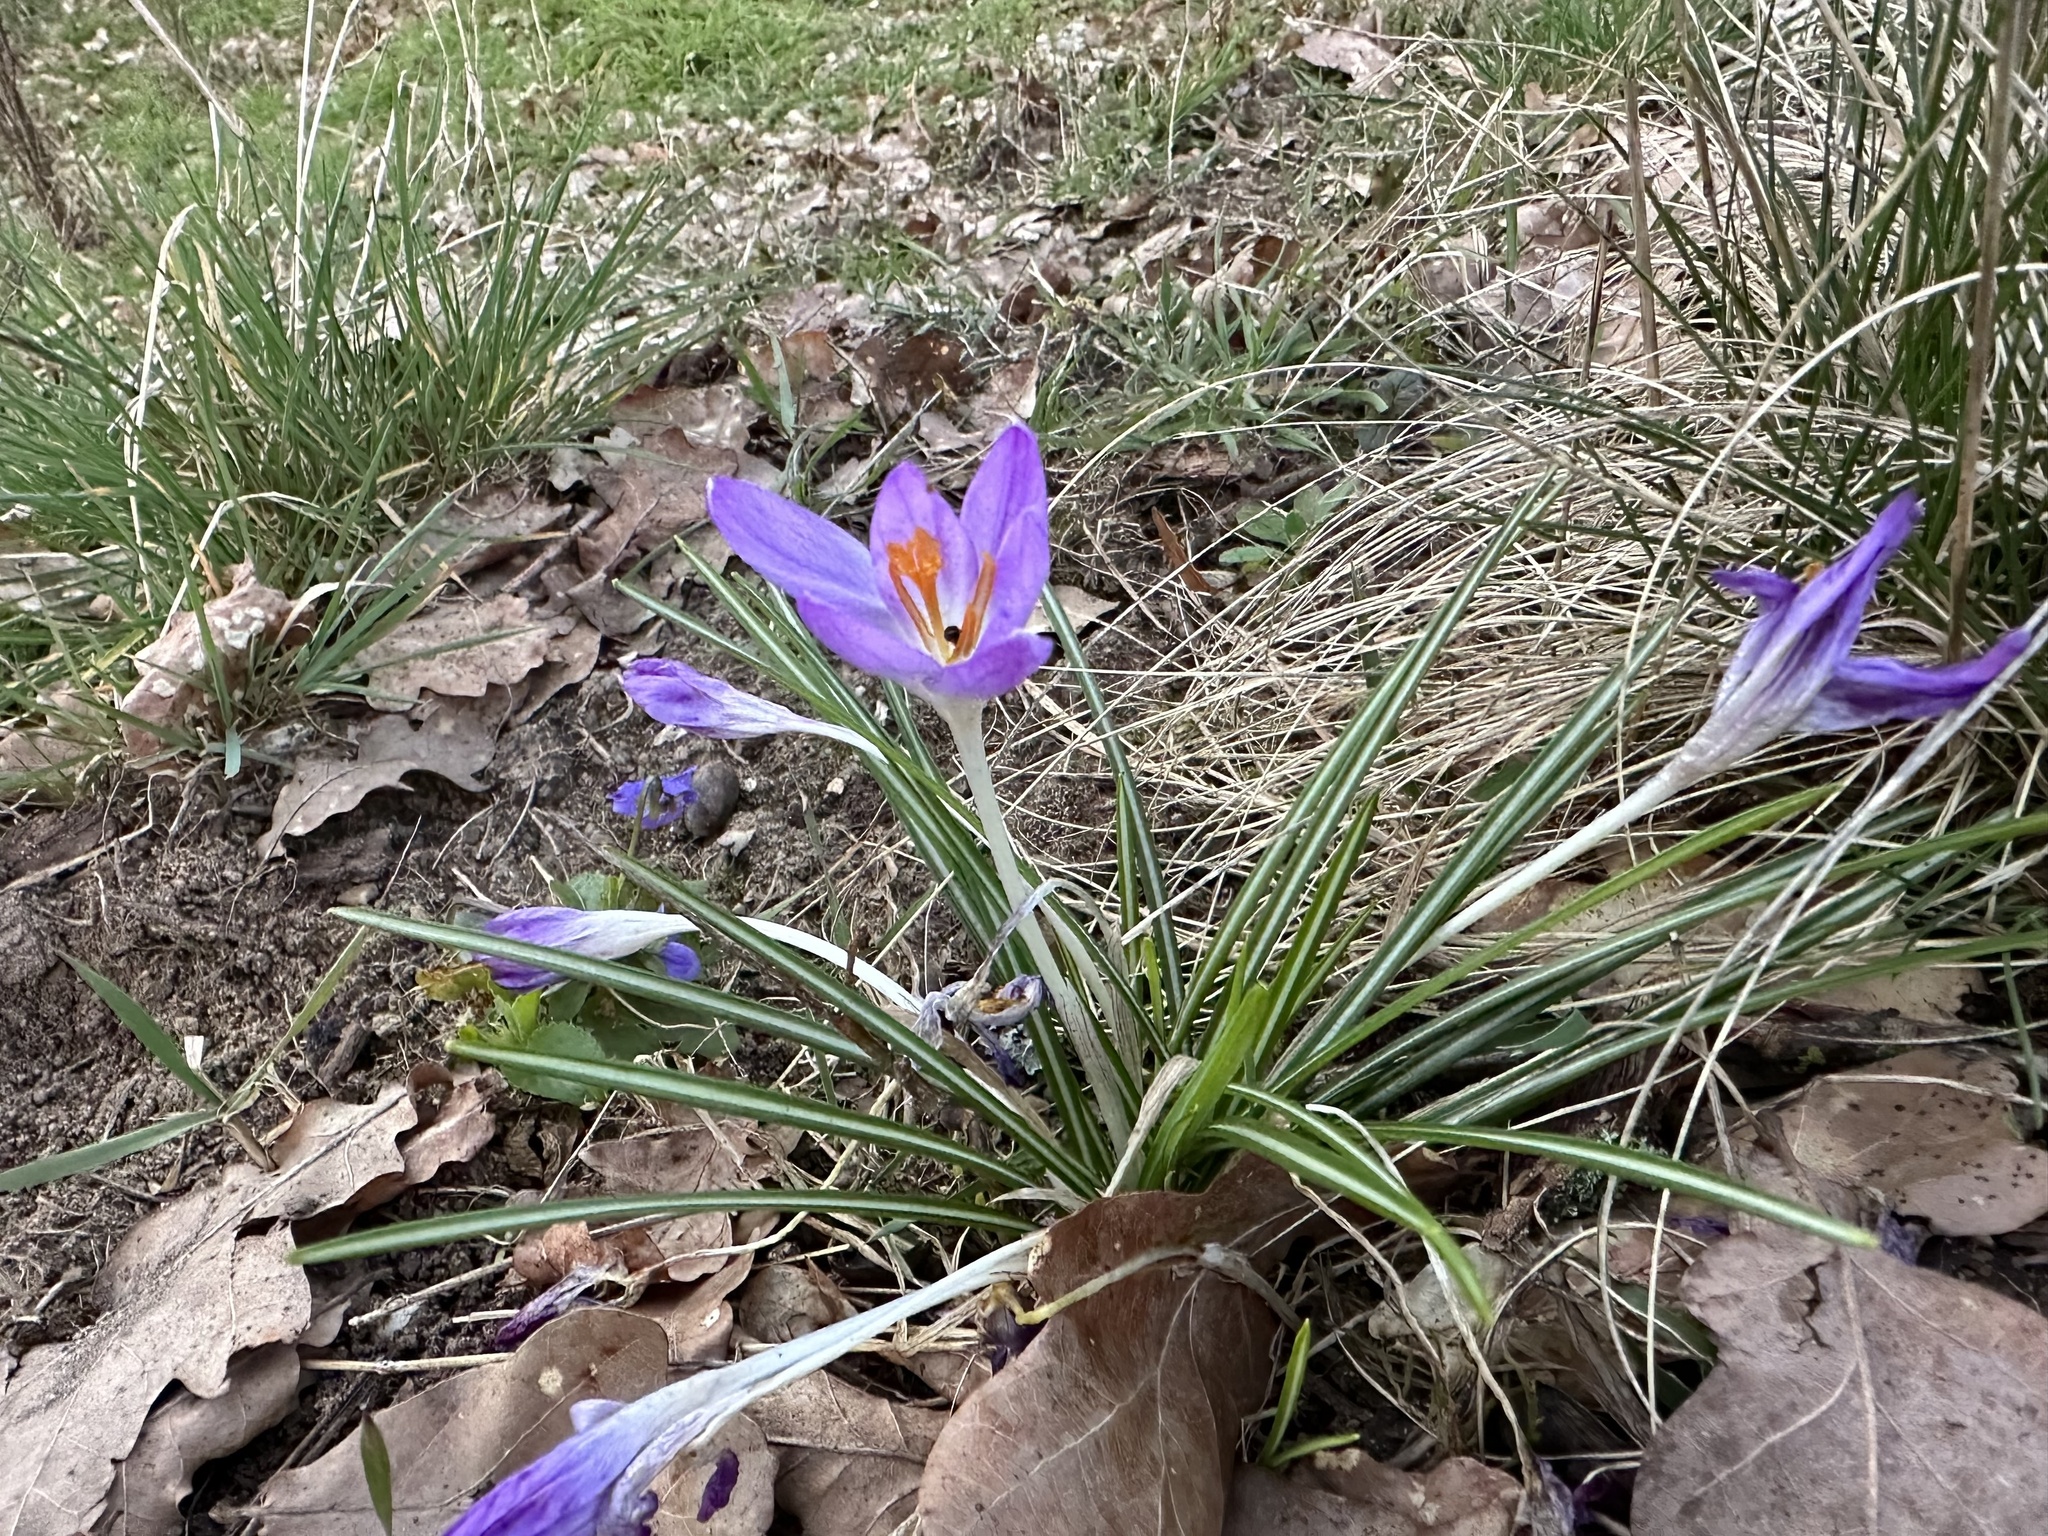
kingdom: Plantae
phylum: Tracheophyta
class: Liliopsida
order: Asparagales
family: Iridaceae
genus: Crocus
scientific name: Crocus tommasinianus
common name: Early crocus
